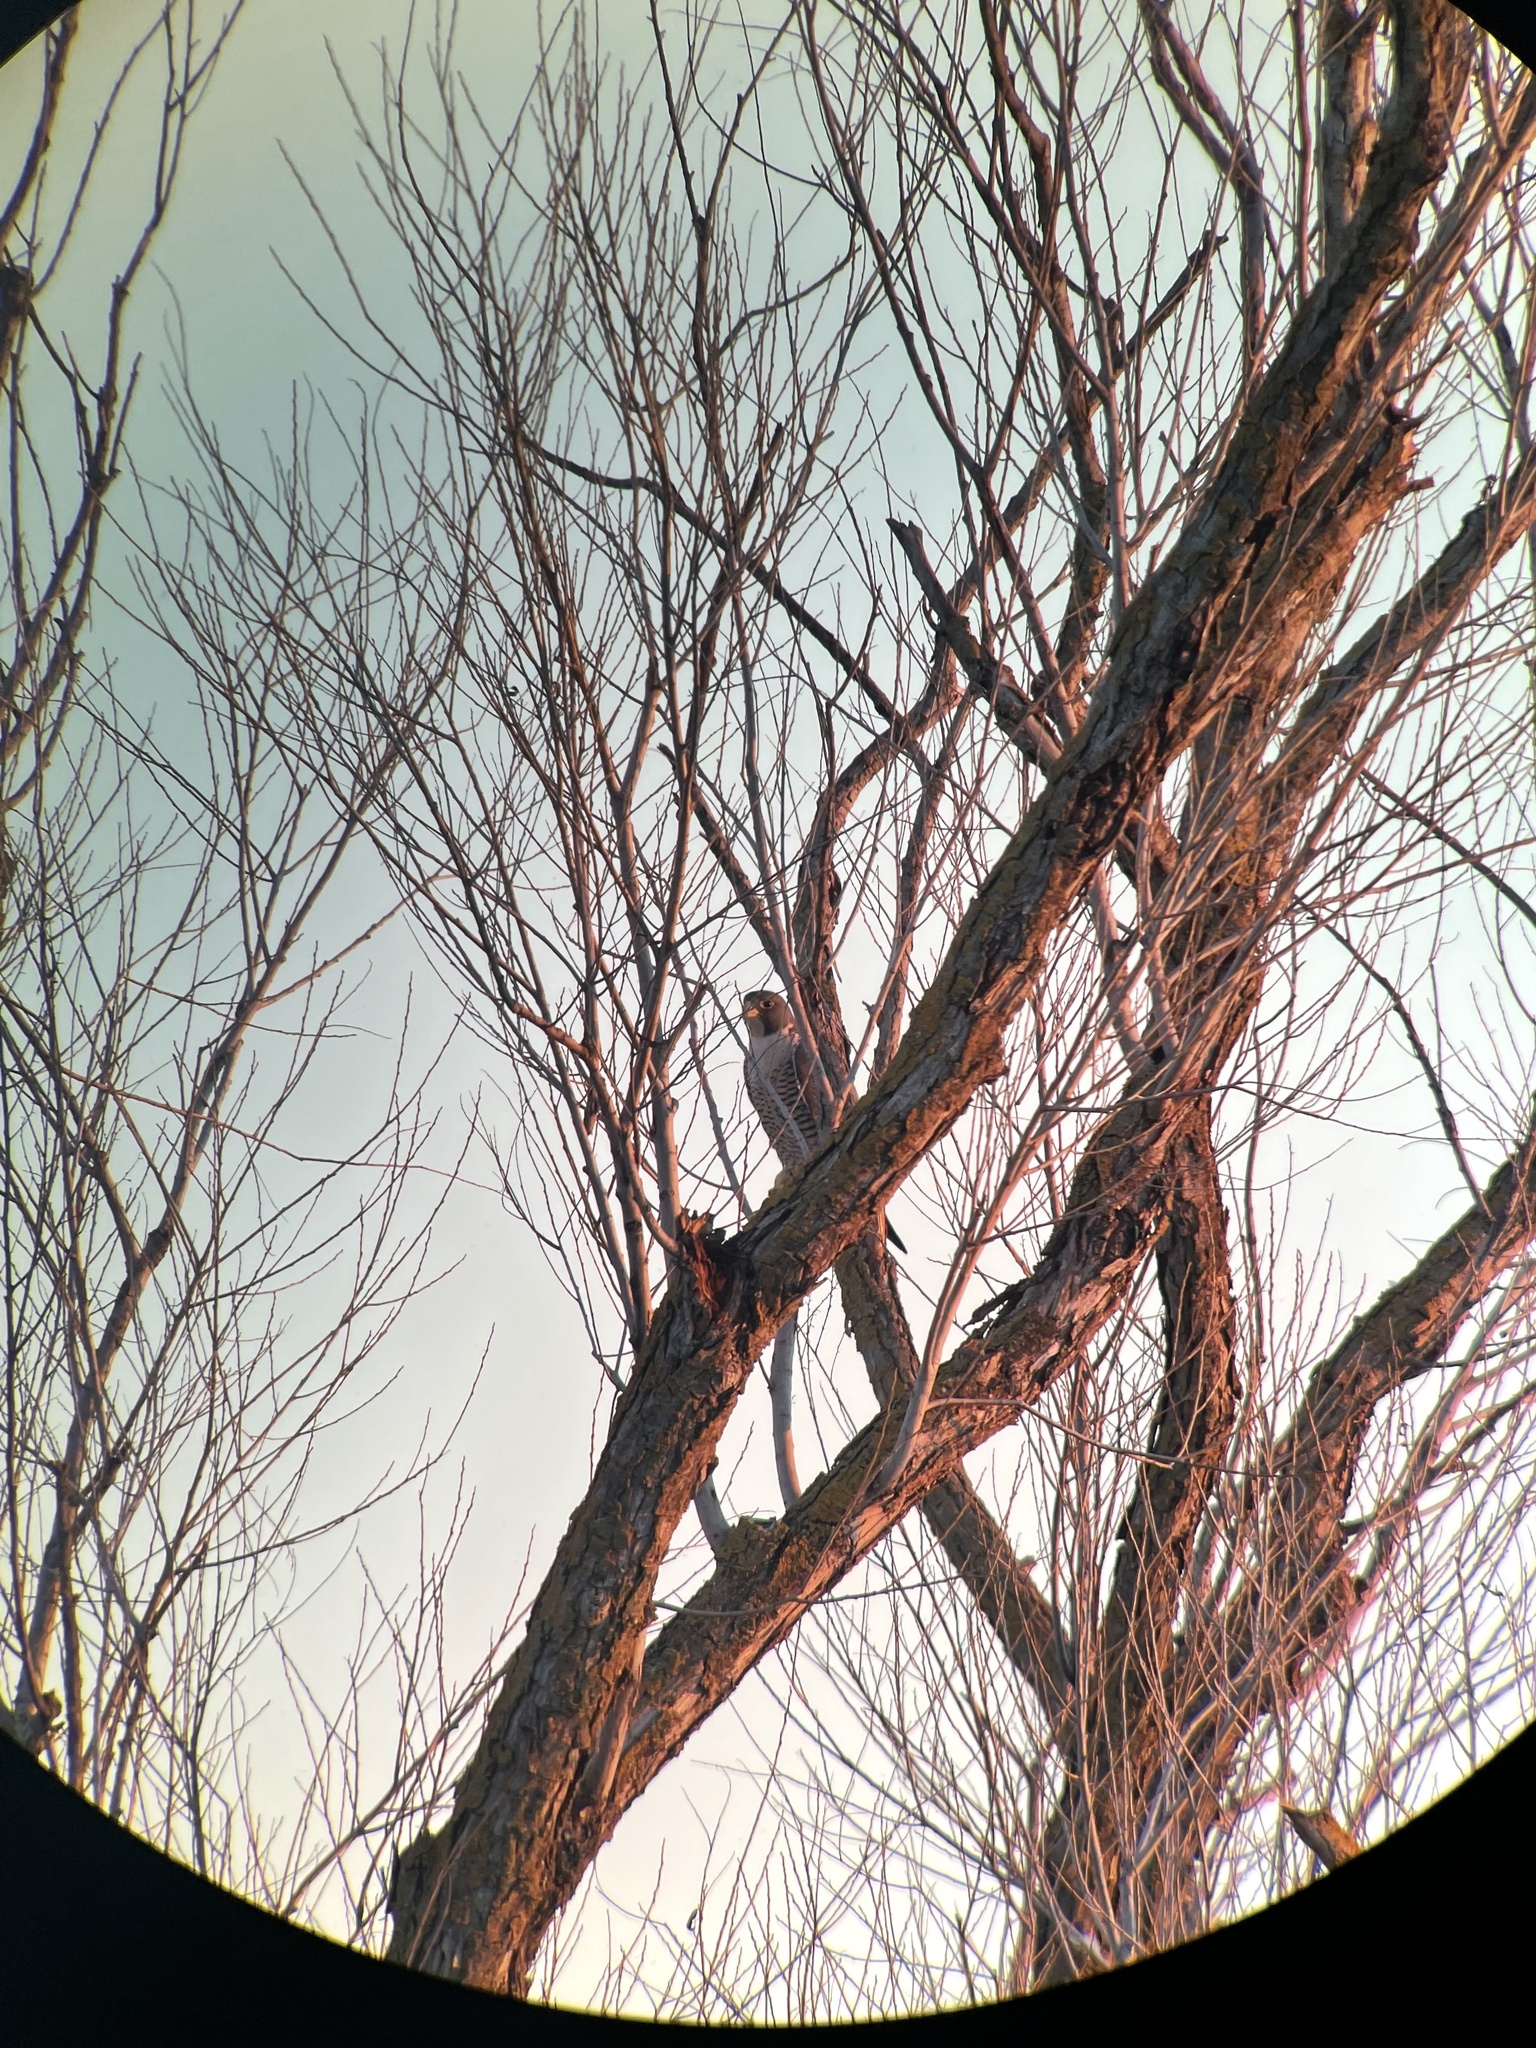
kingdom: Animalia
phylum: Chordata
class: Aves
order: Falconiformes
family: Falconidae
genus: Falco
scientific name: Falco peregrinus
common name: Peregrine falcon
